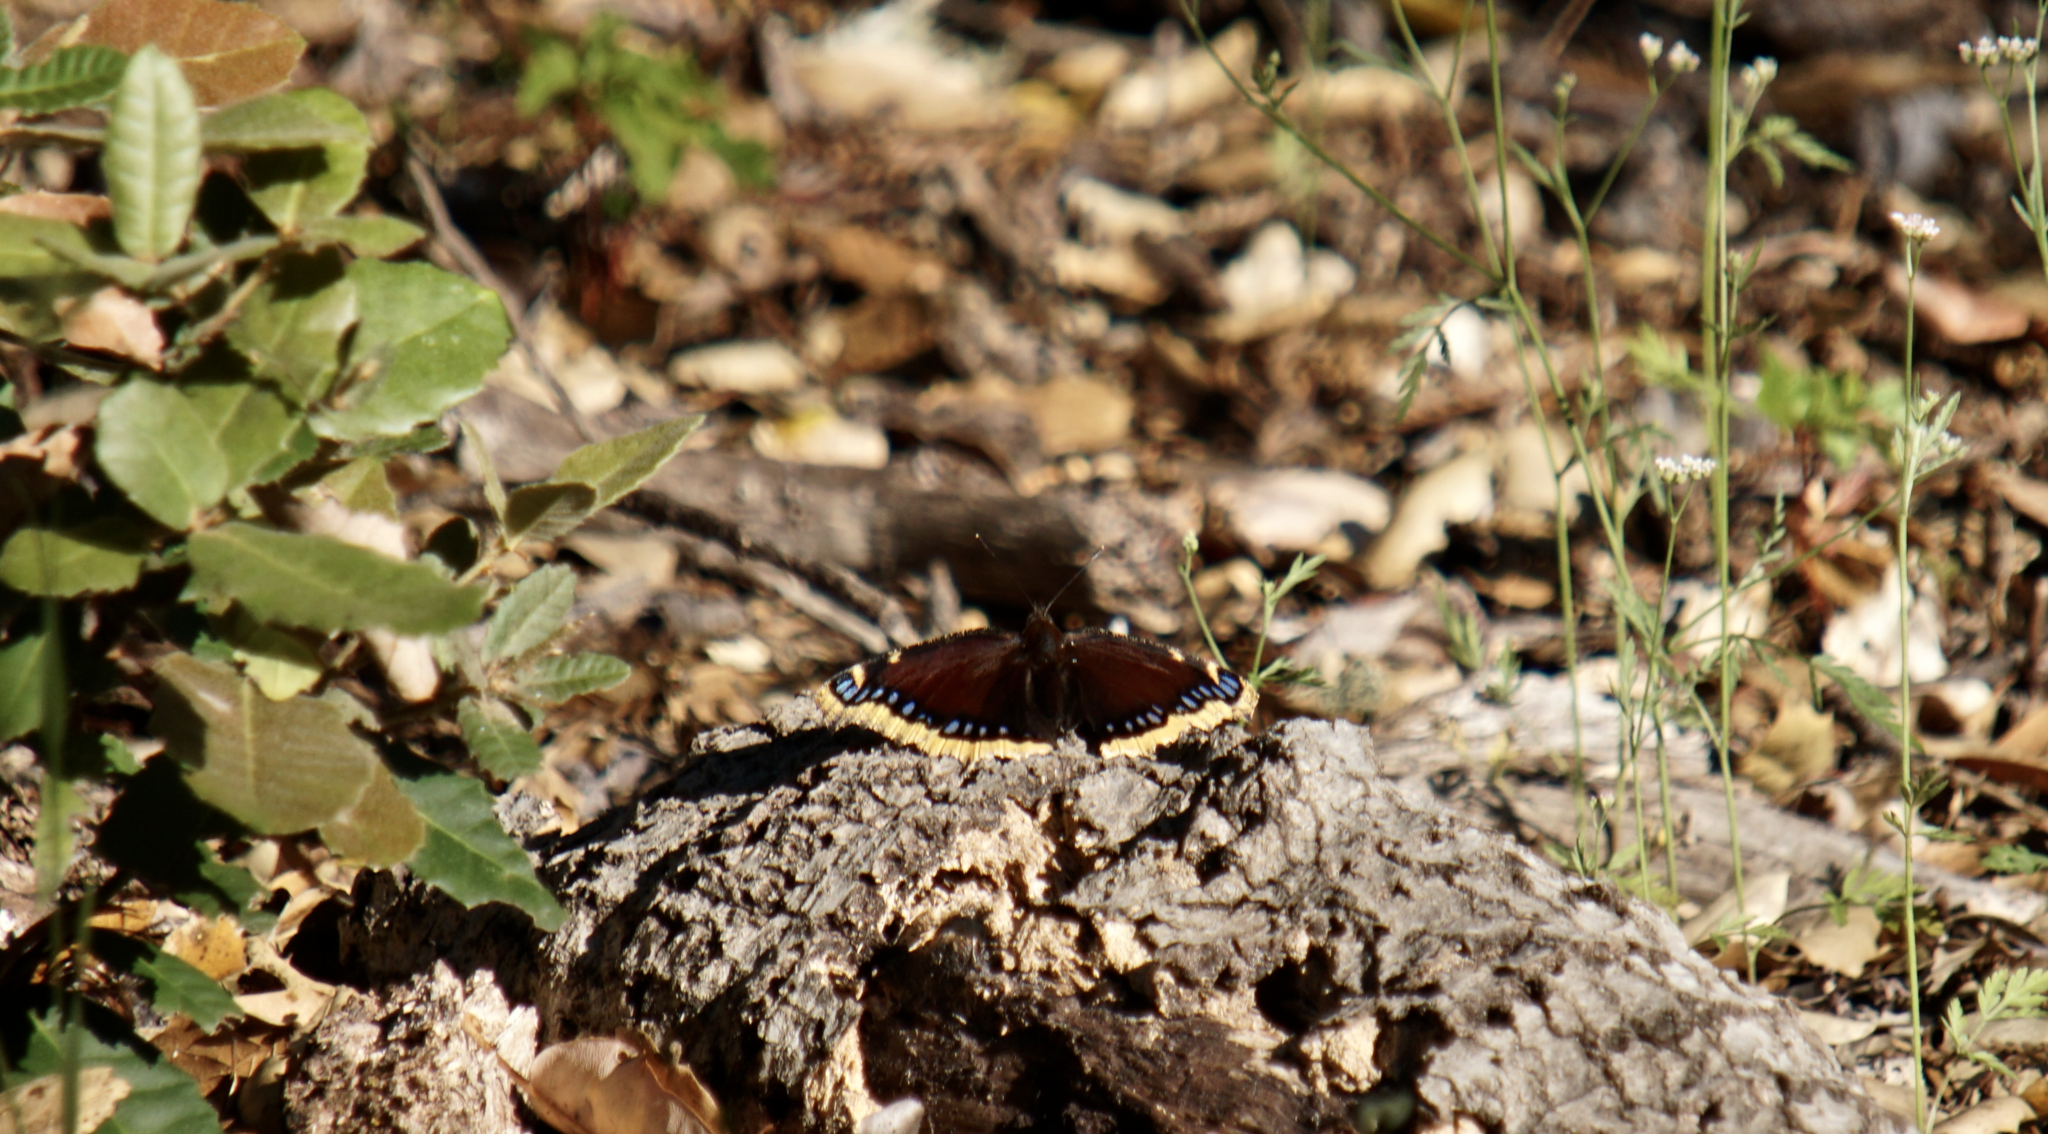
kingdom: Animalia
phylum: Arthropoda
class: Insecta
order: Lepidoptera
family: Nymphalidae
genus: Nymphalis
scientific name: Nymphalis antiopa
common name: Camberwell beauty
